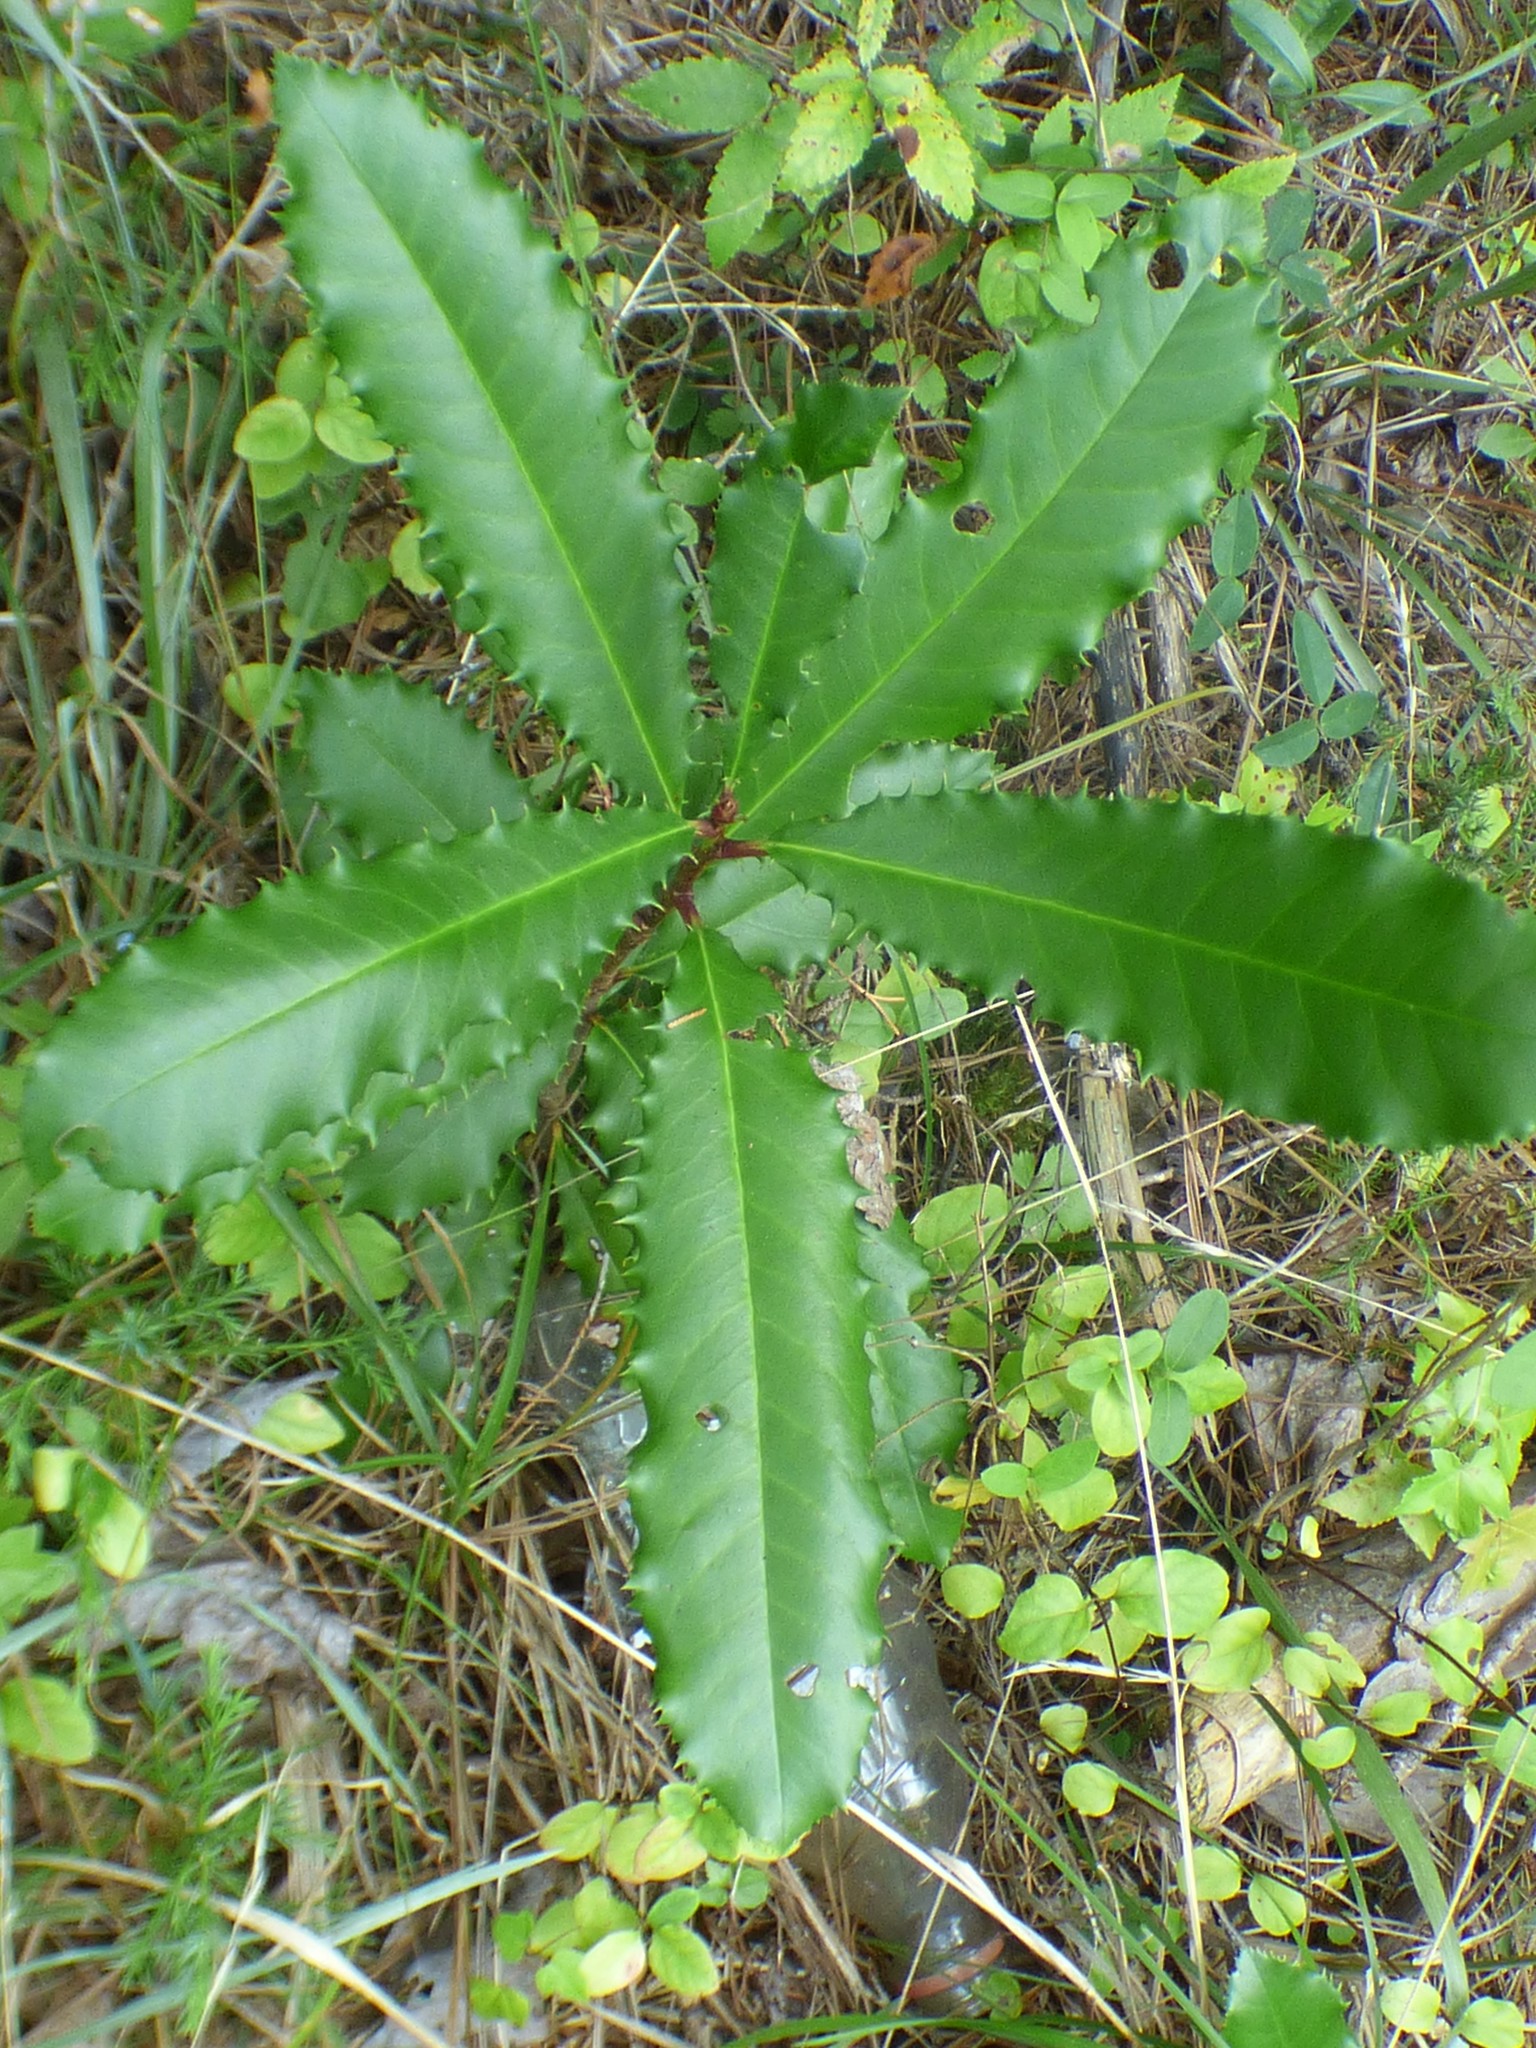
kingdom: Plantae
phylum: Tracheophyta
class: Magnoliopsida
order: Rosales
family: Rosaceae
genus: Photinia
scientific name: Photinia serratifolia
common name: Taiwanese photinia
